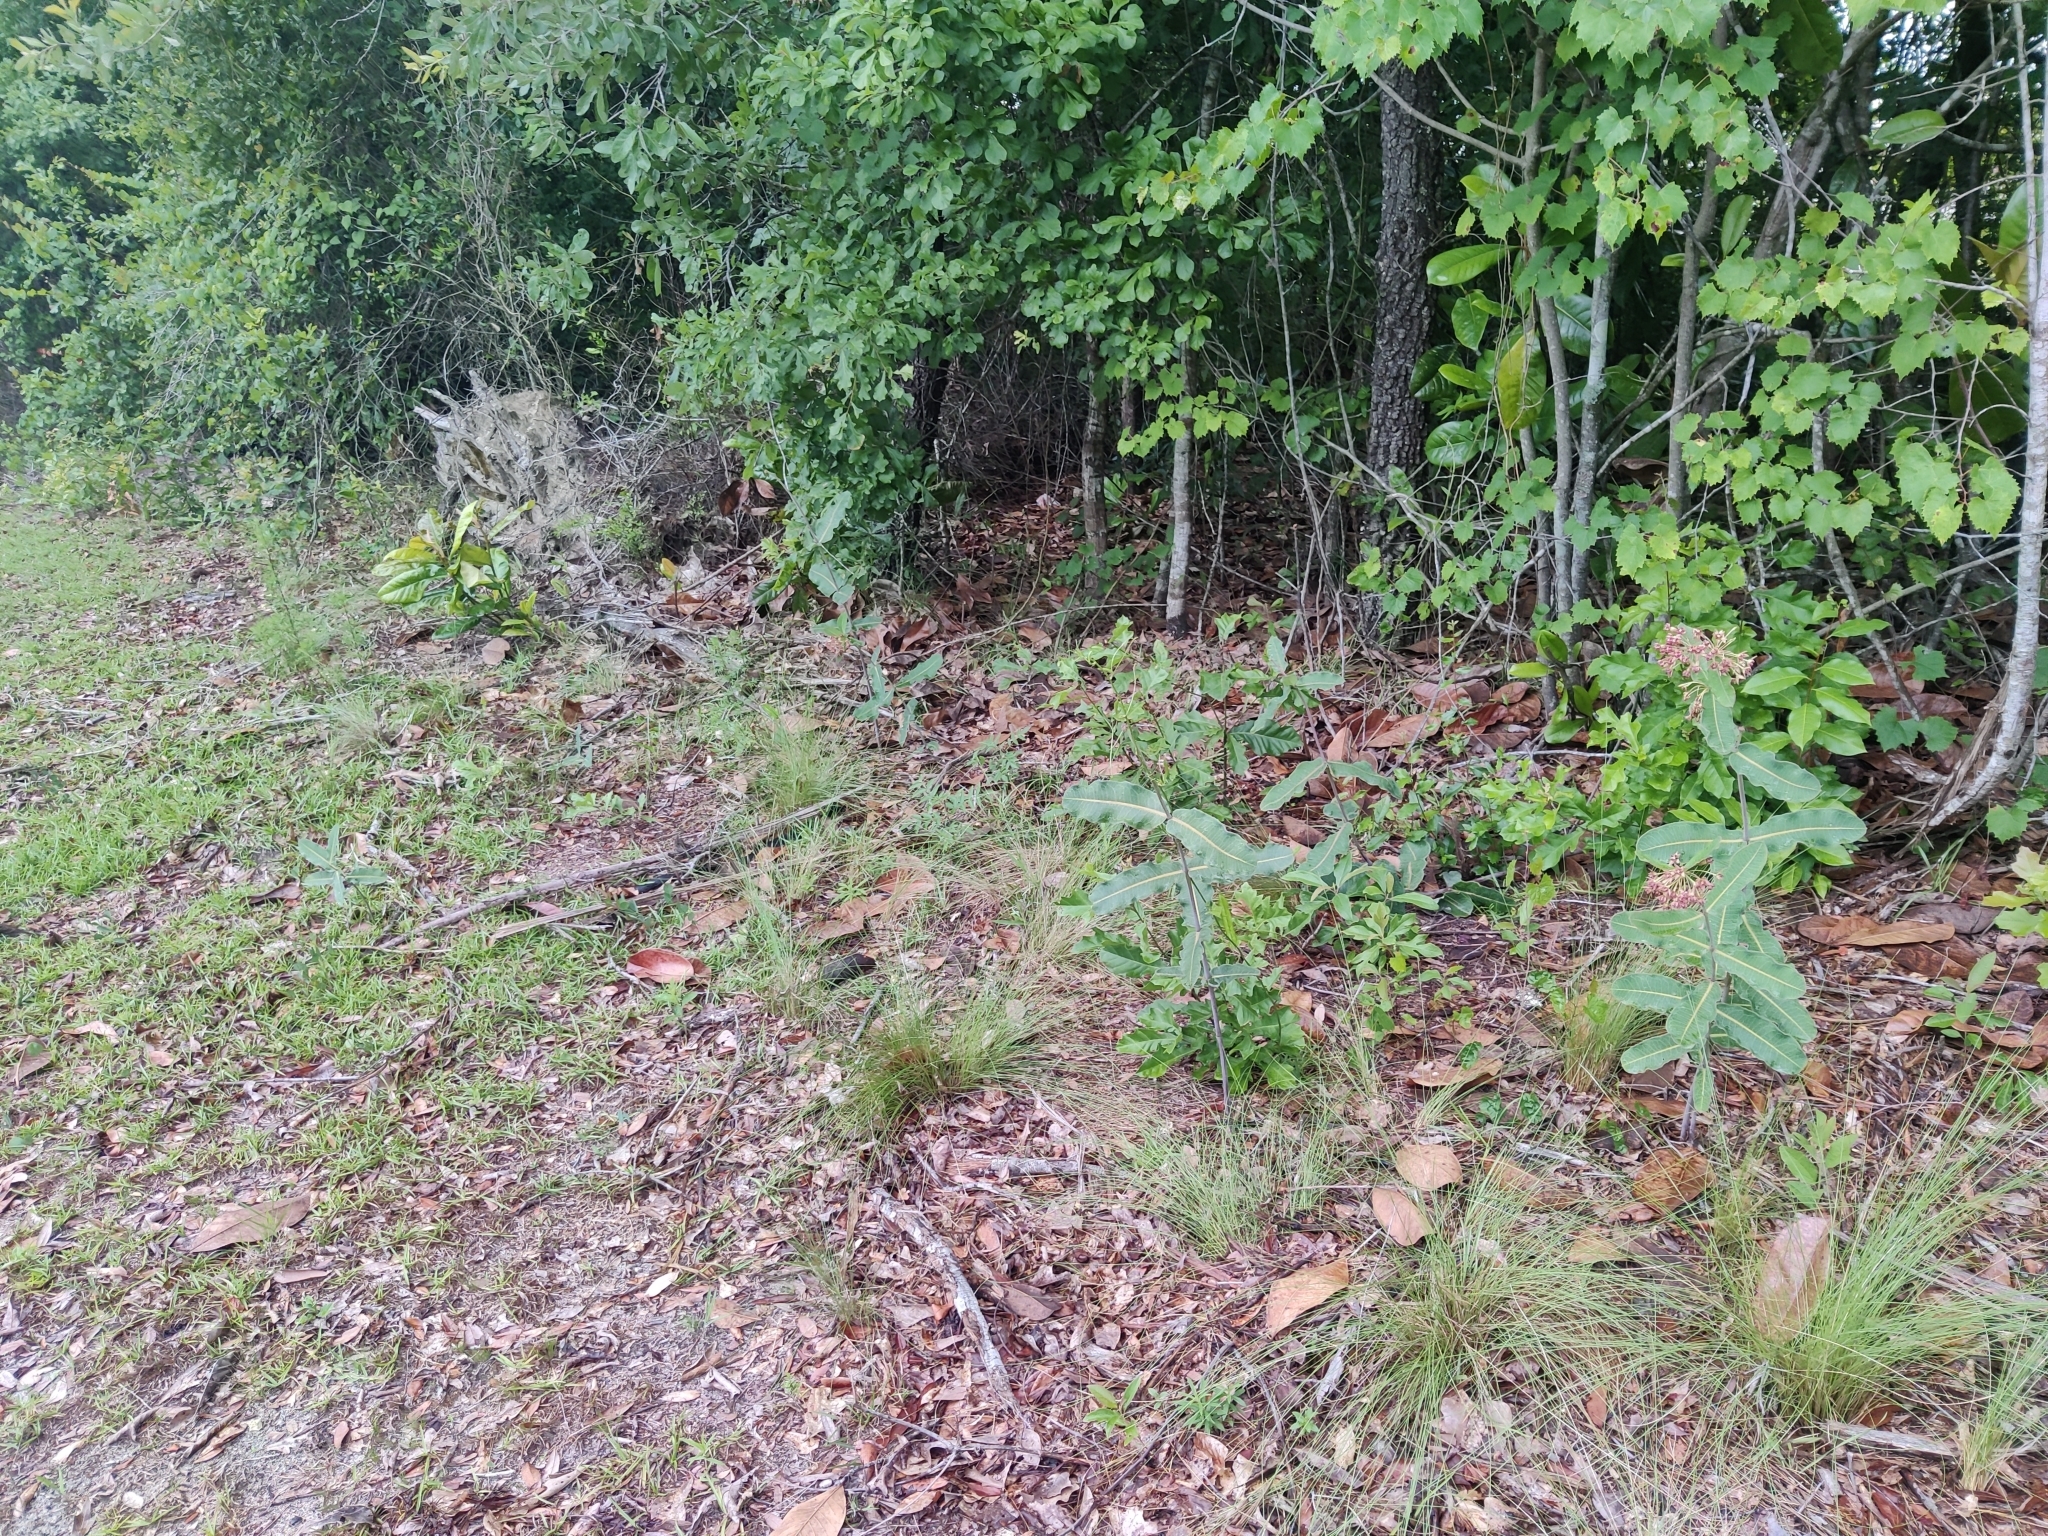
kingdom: Plantae
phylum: Tracheophyta
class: Magnoliopsida
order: Gentianales
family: Apocynaceae
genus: Asclepias
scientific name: Asclepias amplexicaulis
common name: Blunt-leaf milkweed
